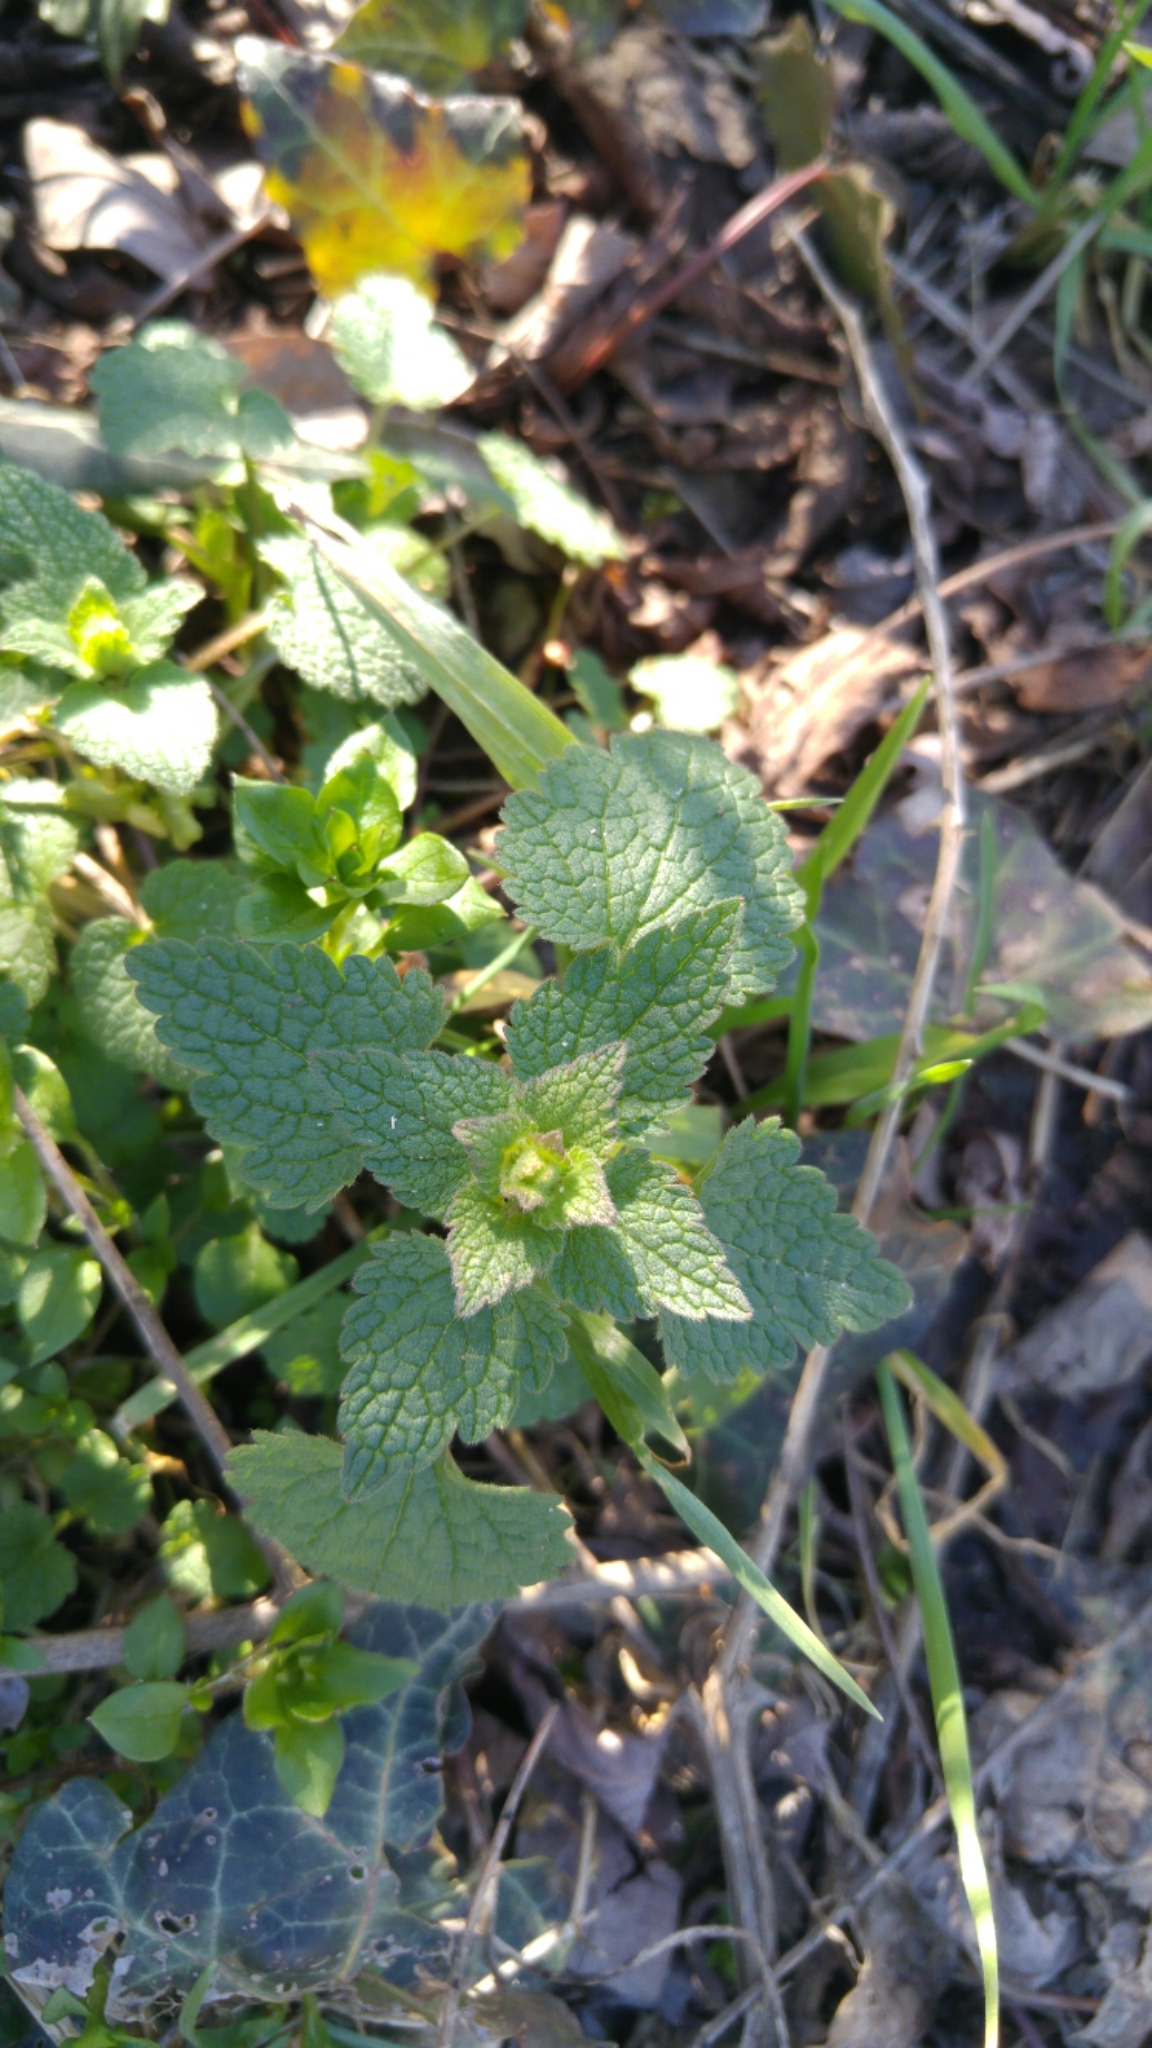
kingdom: Plantae
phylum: Tracheophyta
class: Magnoliopsida
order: Lamiales
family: Lamiaceae
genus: Lamium
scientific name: Lamium purpureum
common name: Red dead-nettle
